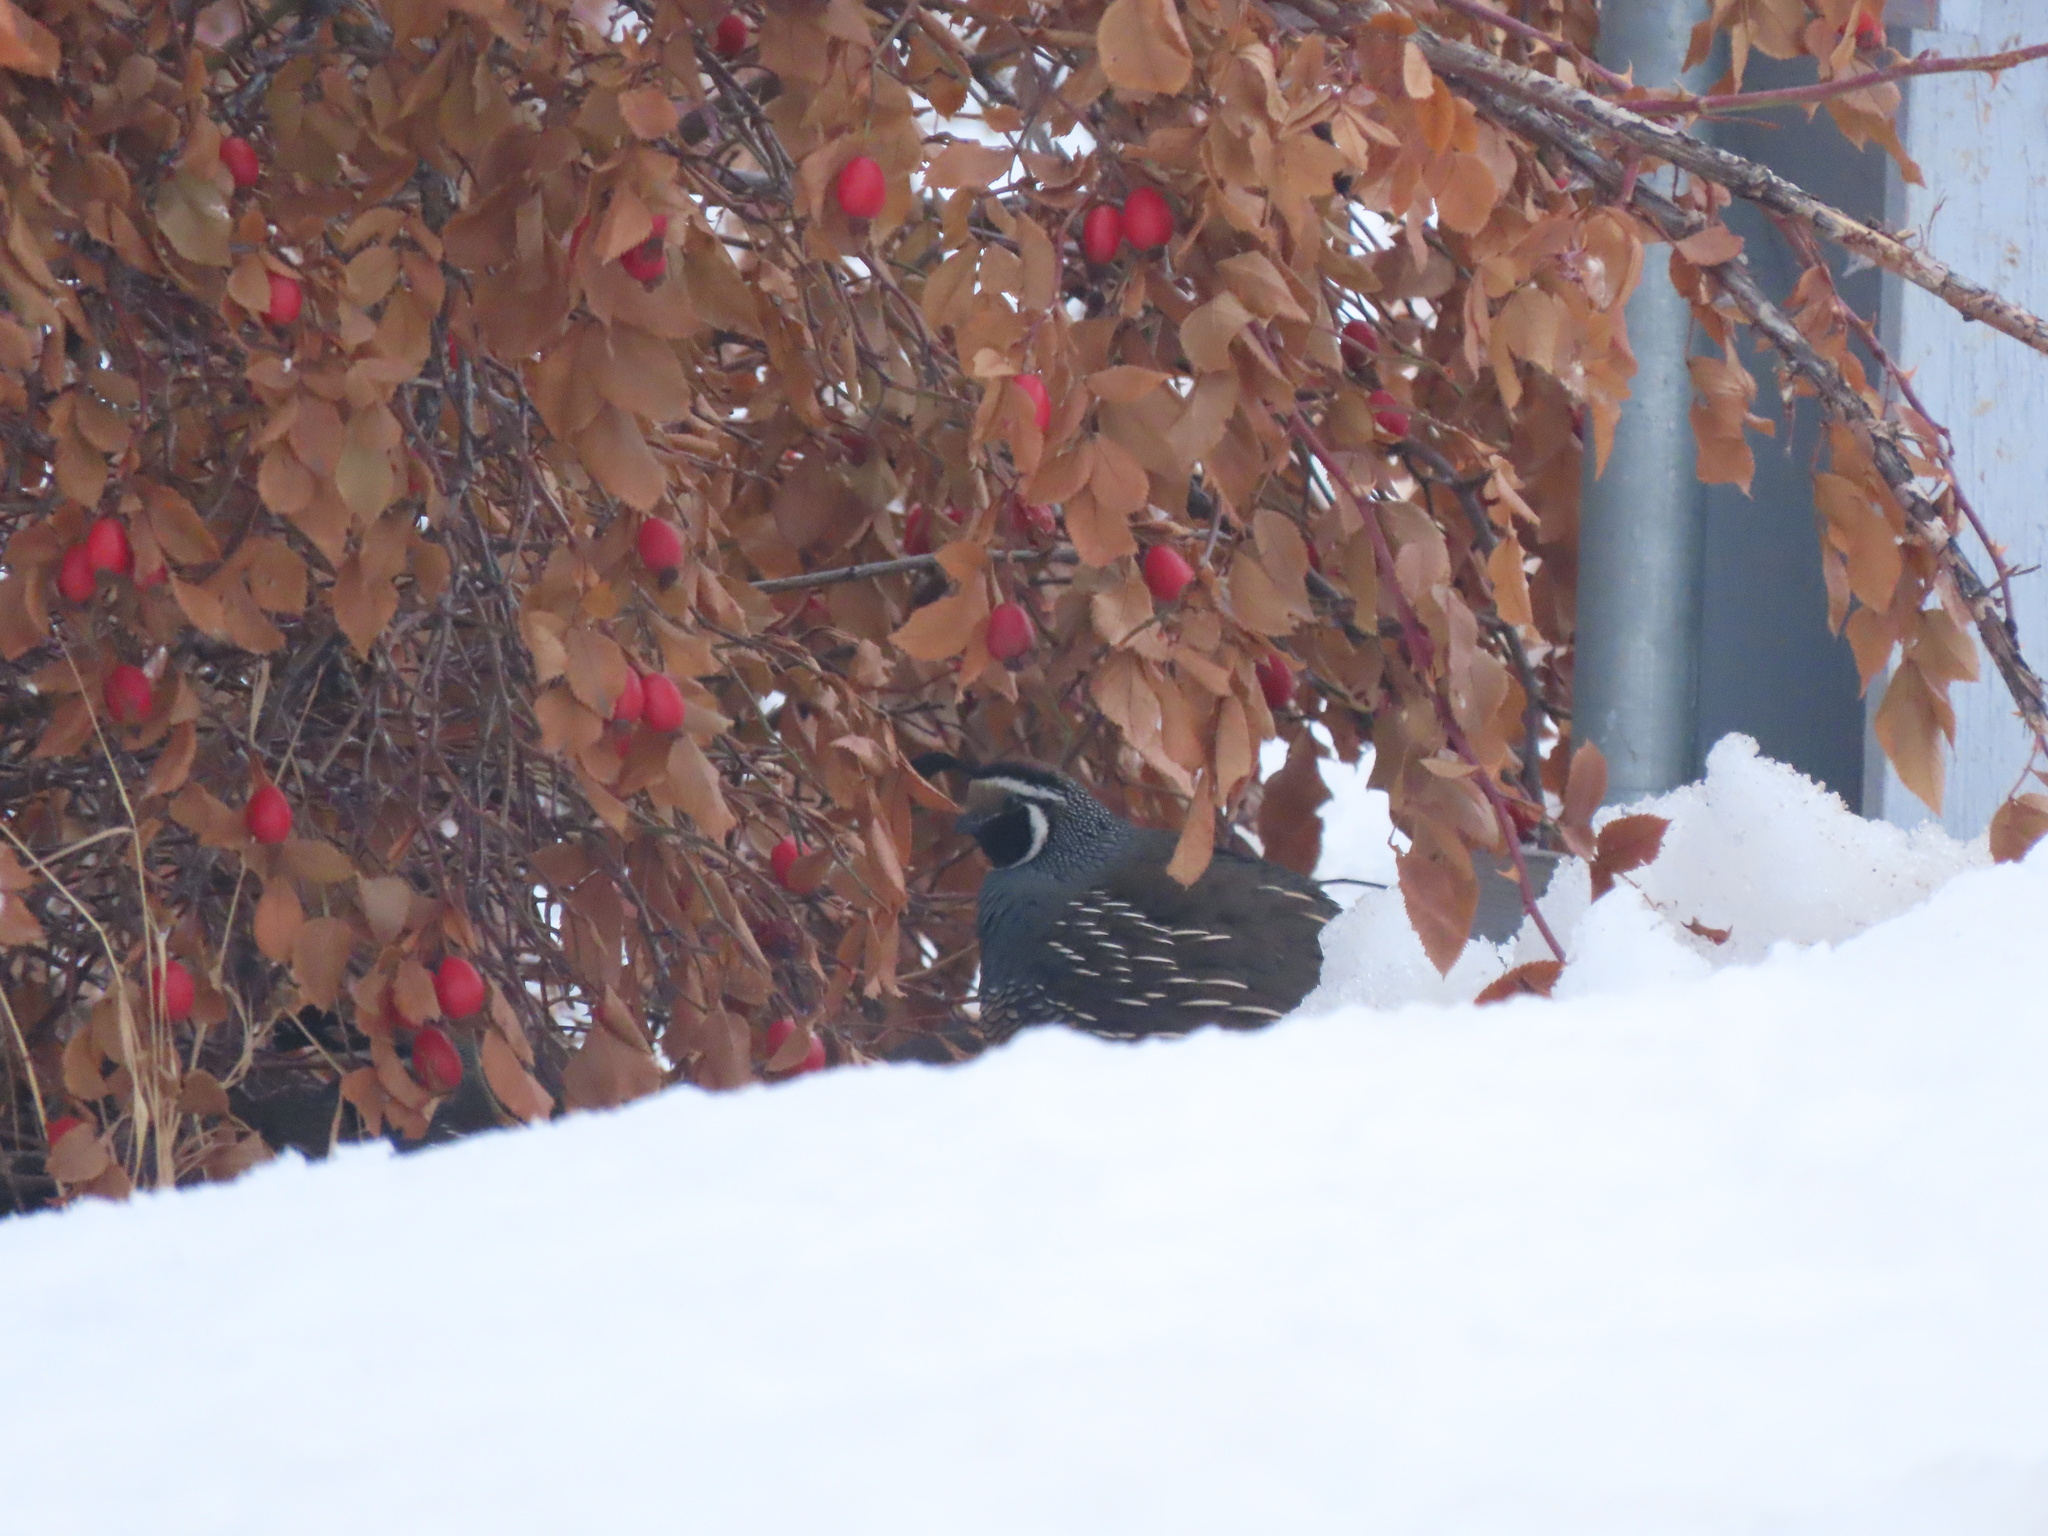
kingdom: Animalia
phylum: Chordata
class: Aves
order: Galliformes
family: Odontophoridae
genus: Callipepla
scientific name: Callipepla californica
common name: California quail
